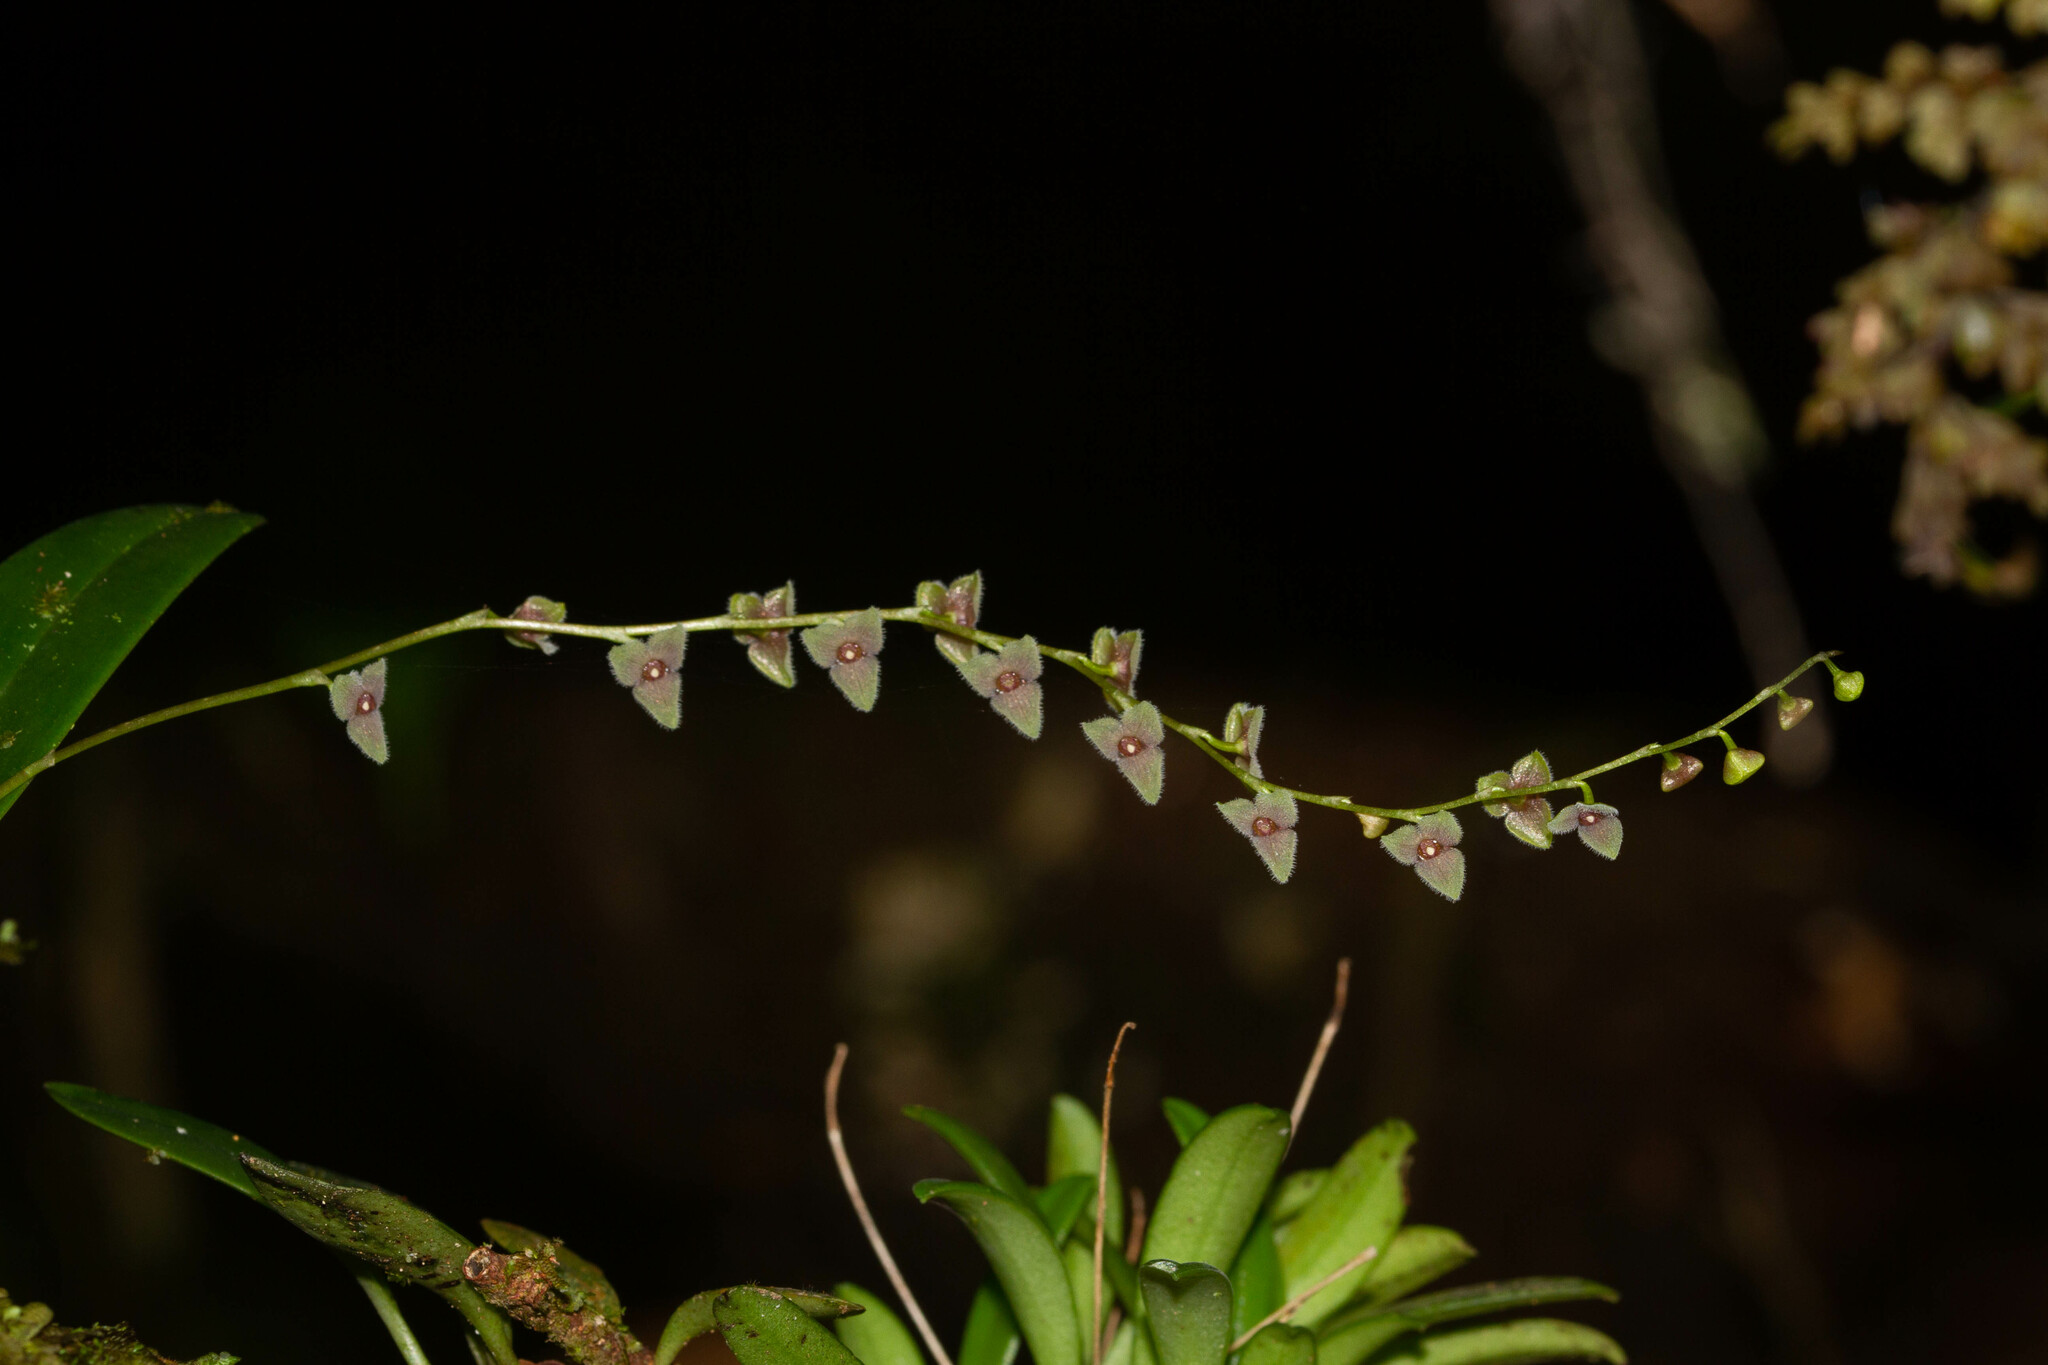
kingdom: Plantae
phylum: Tracheophyta
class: Liliopsida
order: Asparagales
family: Orchidaceae
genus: Stelis
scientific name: Stelis argentata
